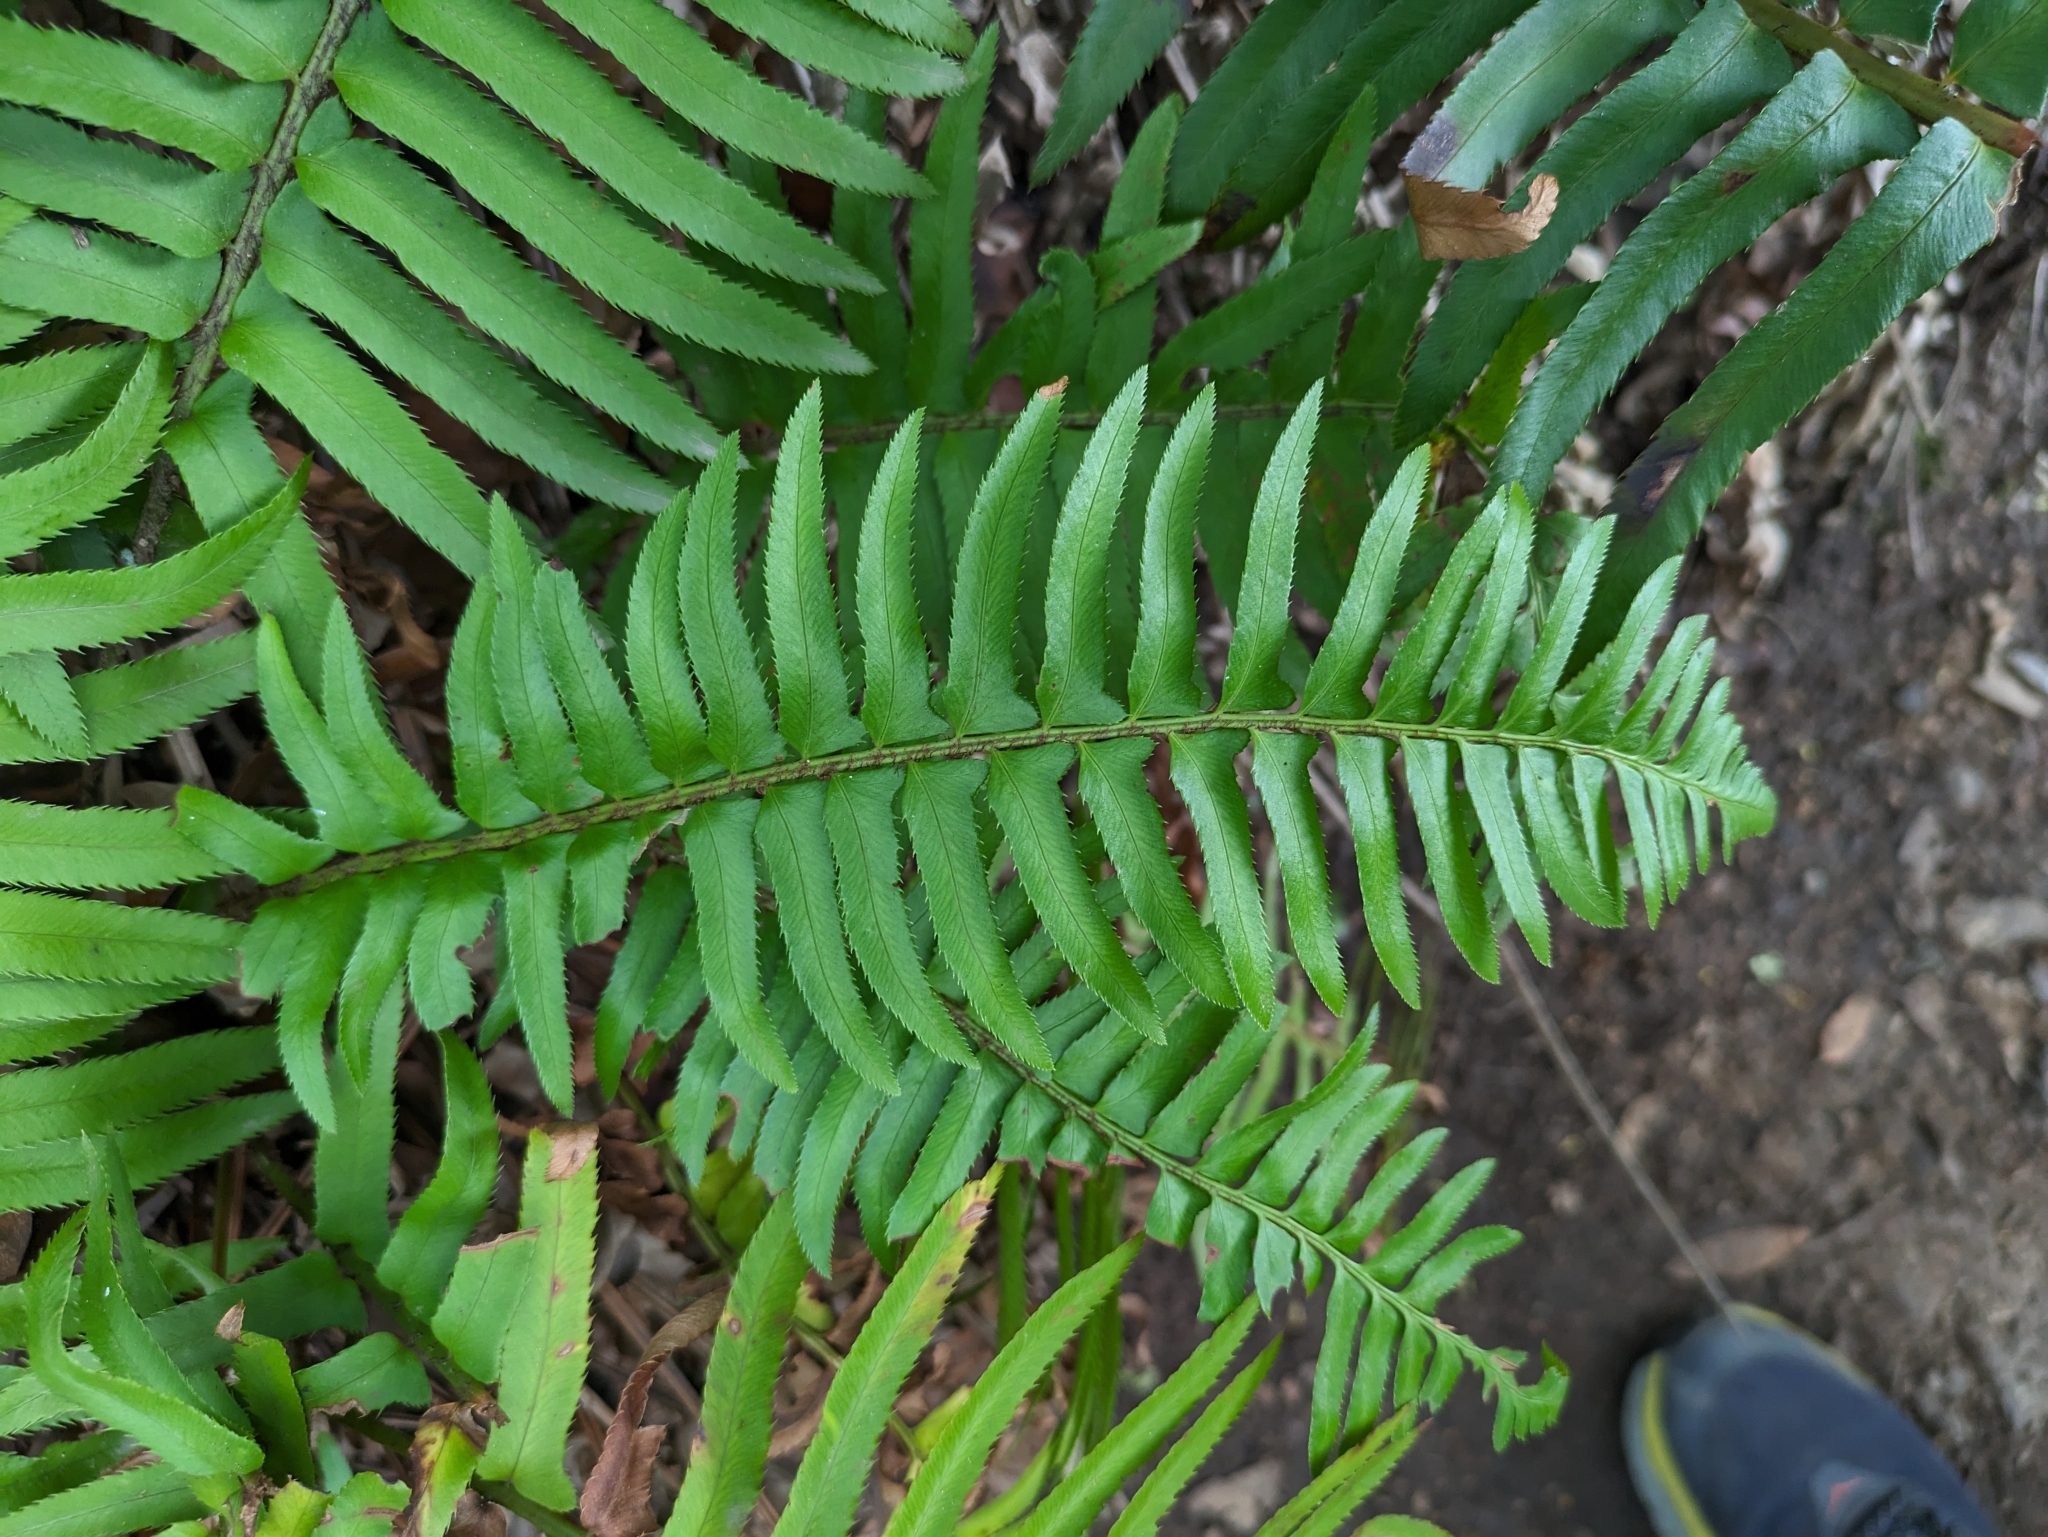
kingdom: Plantae
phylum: Tracheophyta
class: Polypodiopsida
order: Polypodiales
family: Dryopteridaceae
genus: Polystichum
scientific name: Polystichum munitum
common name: Western sword-fern
